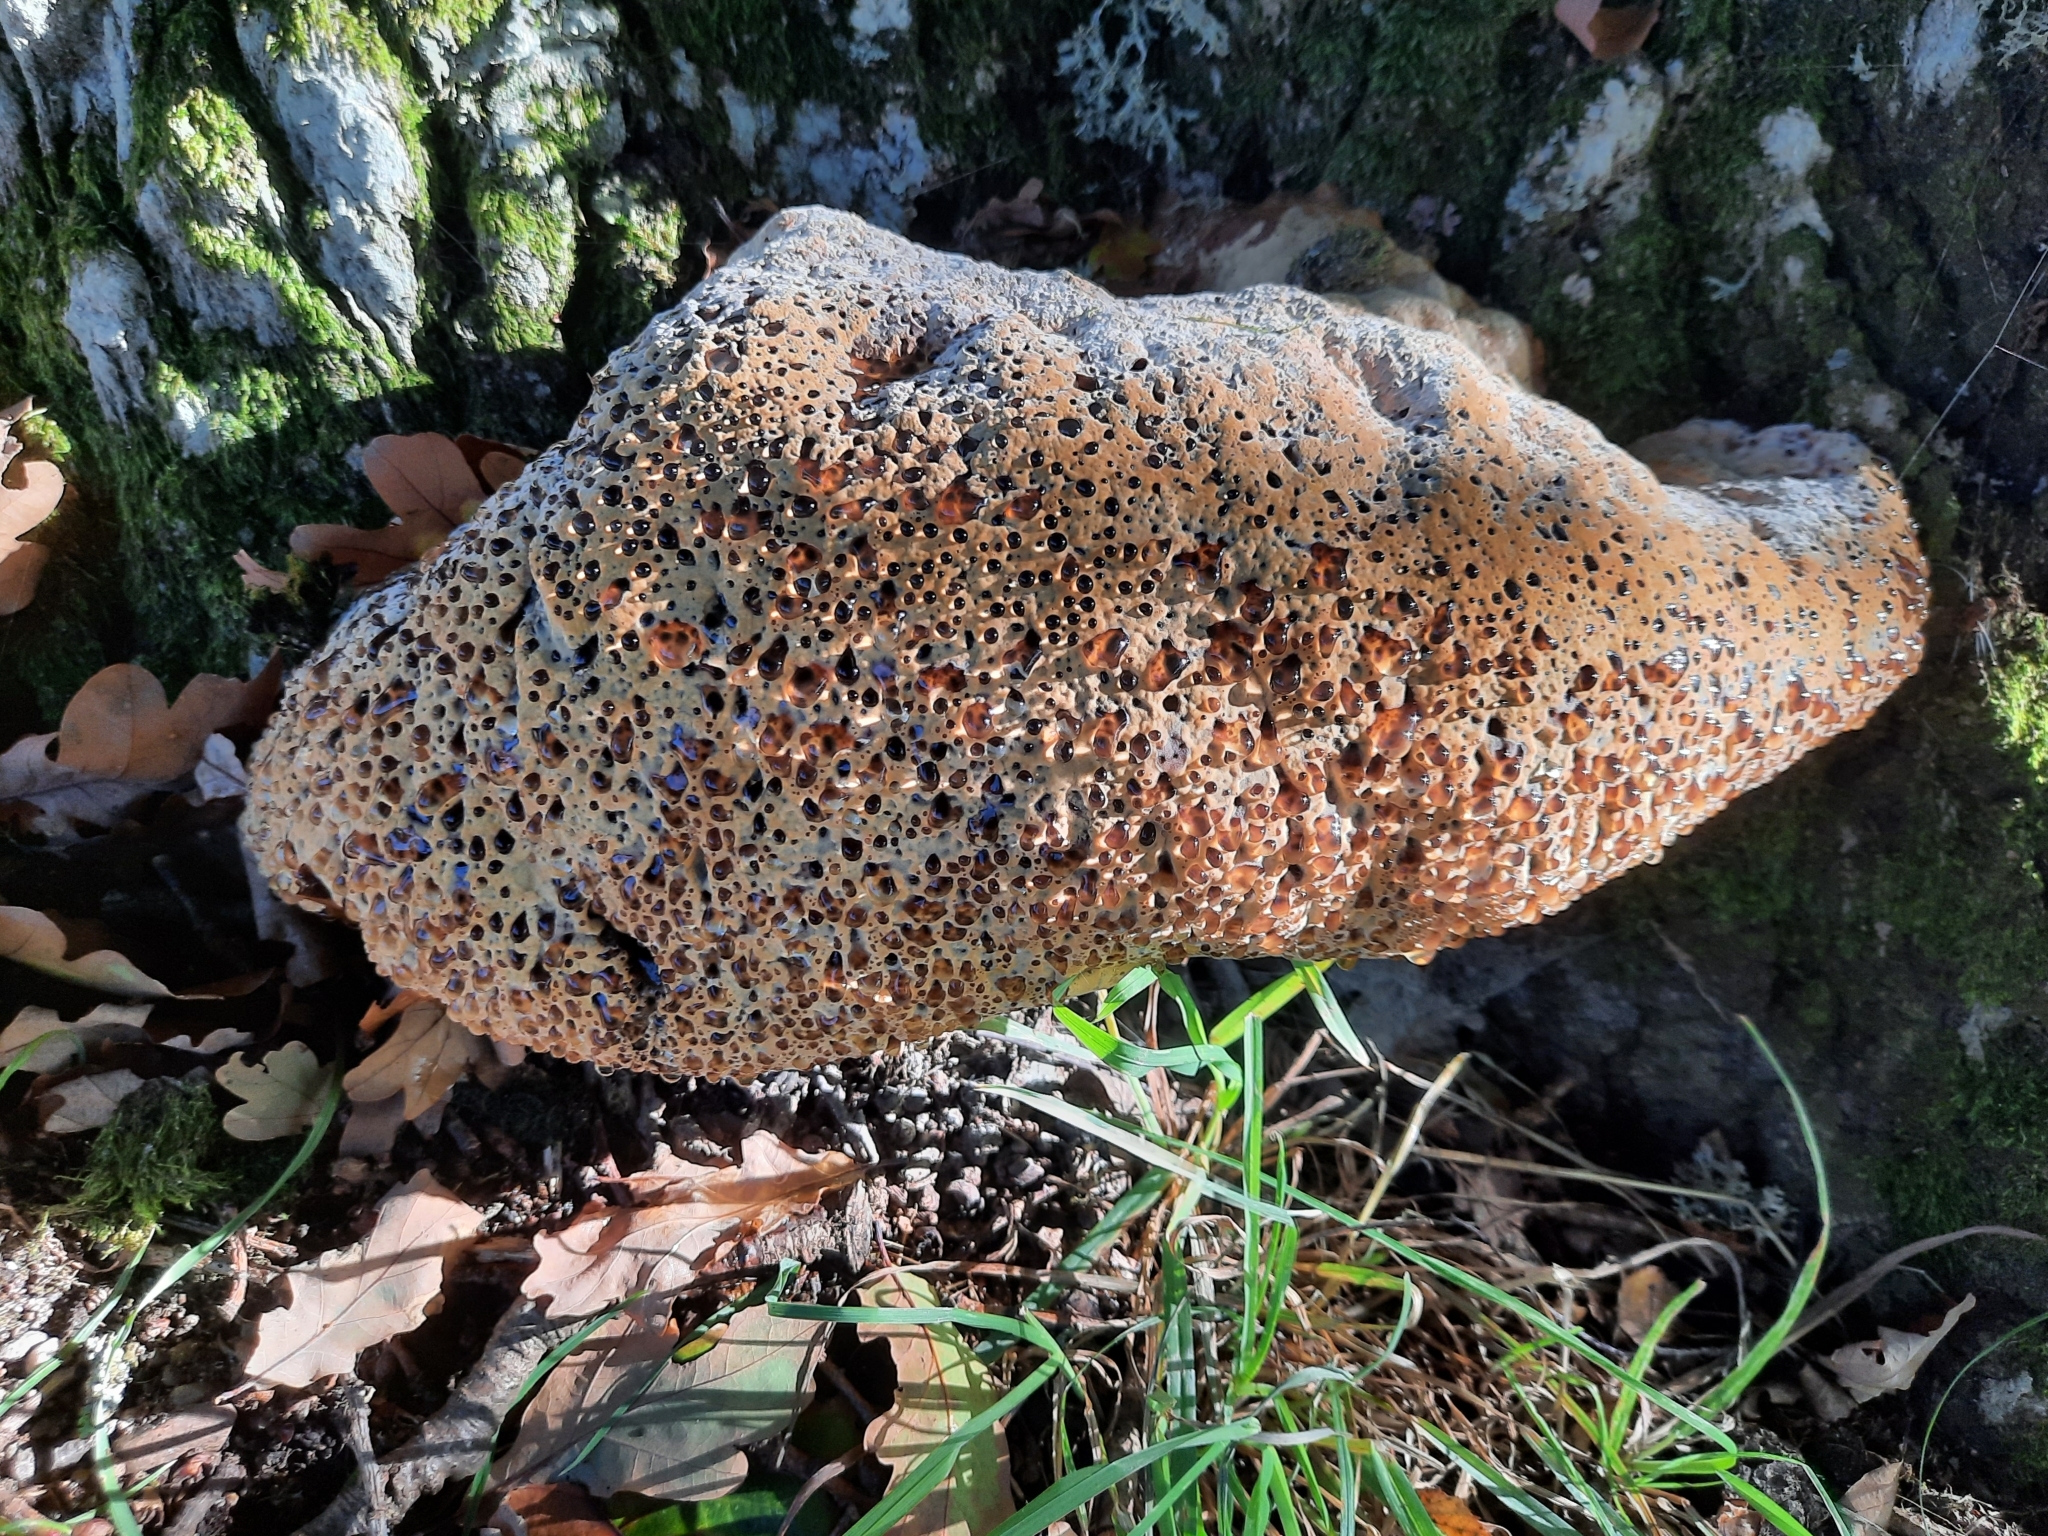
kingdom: Fungi
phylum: Basidiomycota
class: Agaricomycetes
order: Hymenochaetales
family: Hymenochaetaceae
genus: Pseudoinonotus
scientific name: Pseudoinonotus dryadeus
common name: Oak bracket
